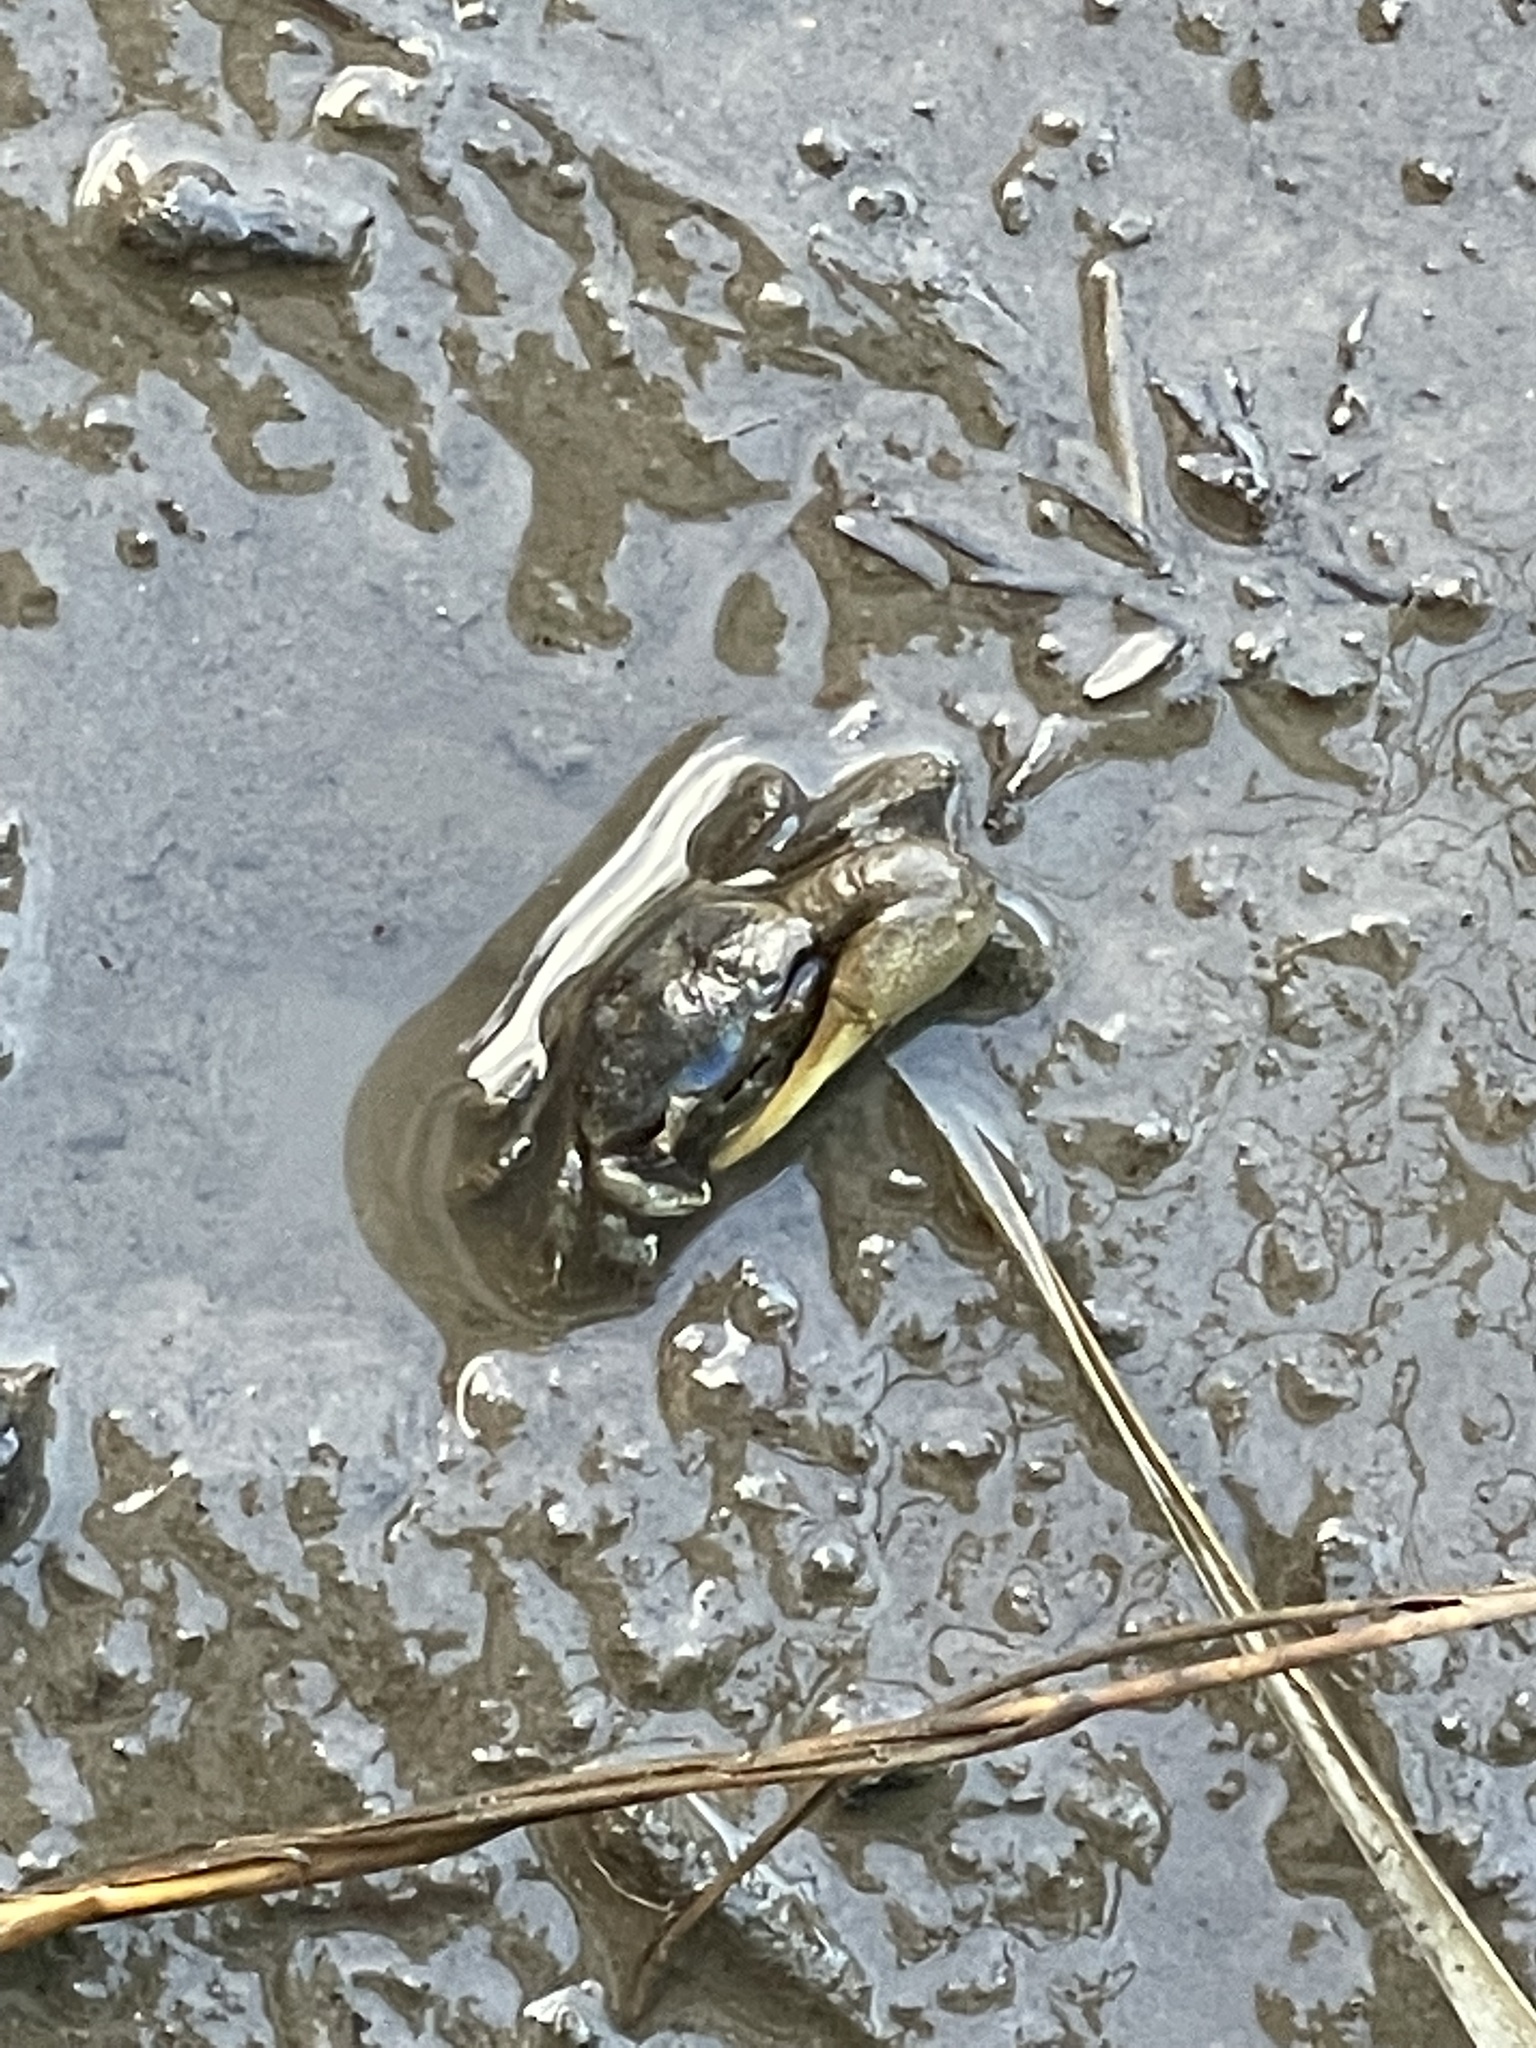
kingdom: Animalia
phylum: Arthropoda
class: Malacostraca
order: Decapoda
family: Ocypodidae
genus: Minuca
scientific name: Minuca pugnax
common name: Mud fiddler crab
